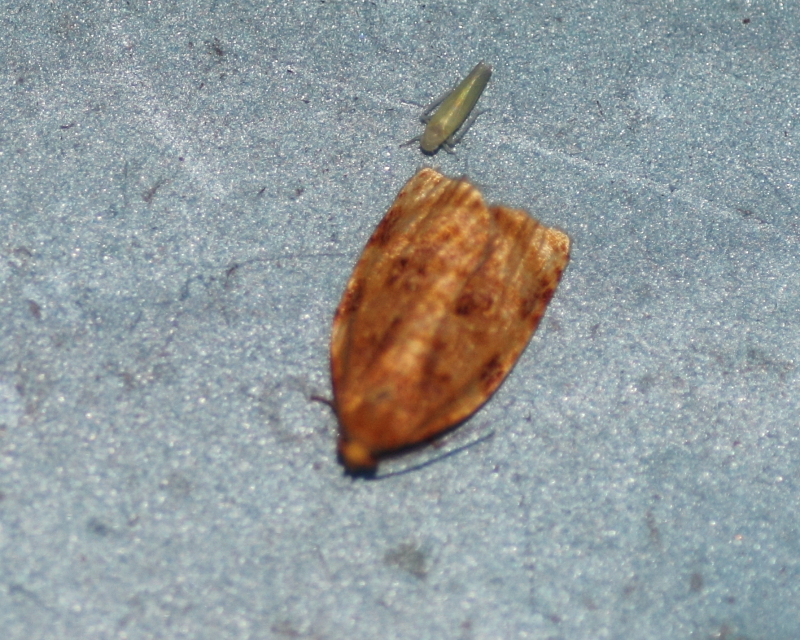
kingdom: Animalia
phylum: Arthropoda
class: Insecta
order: Lepidoptera
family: Tortricidae
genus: Archips
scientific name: Archips cerasivorana
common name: Uglynest caterpillar
